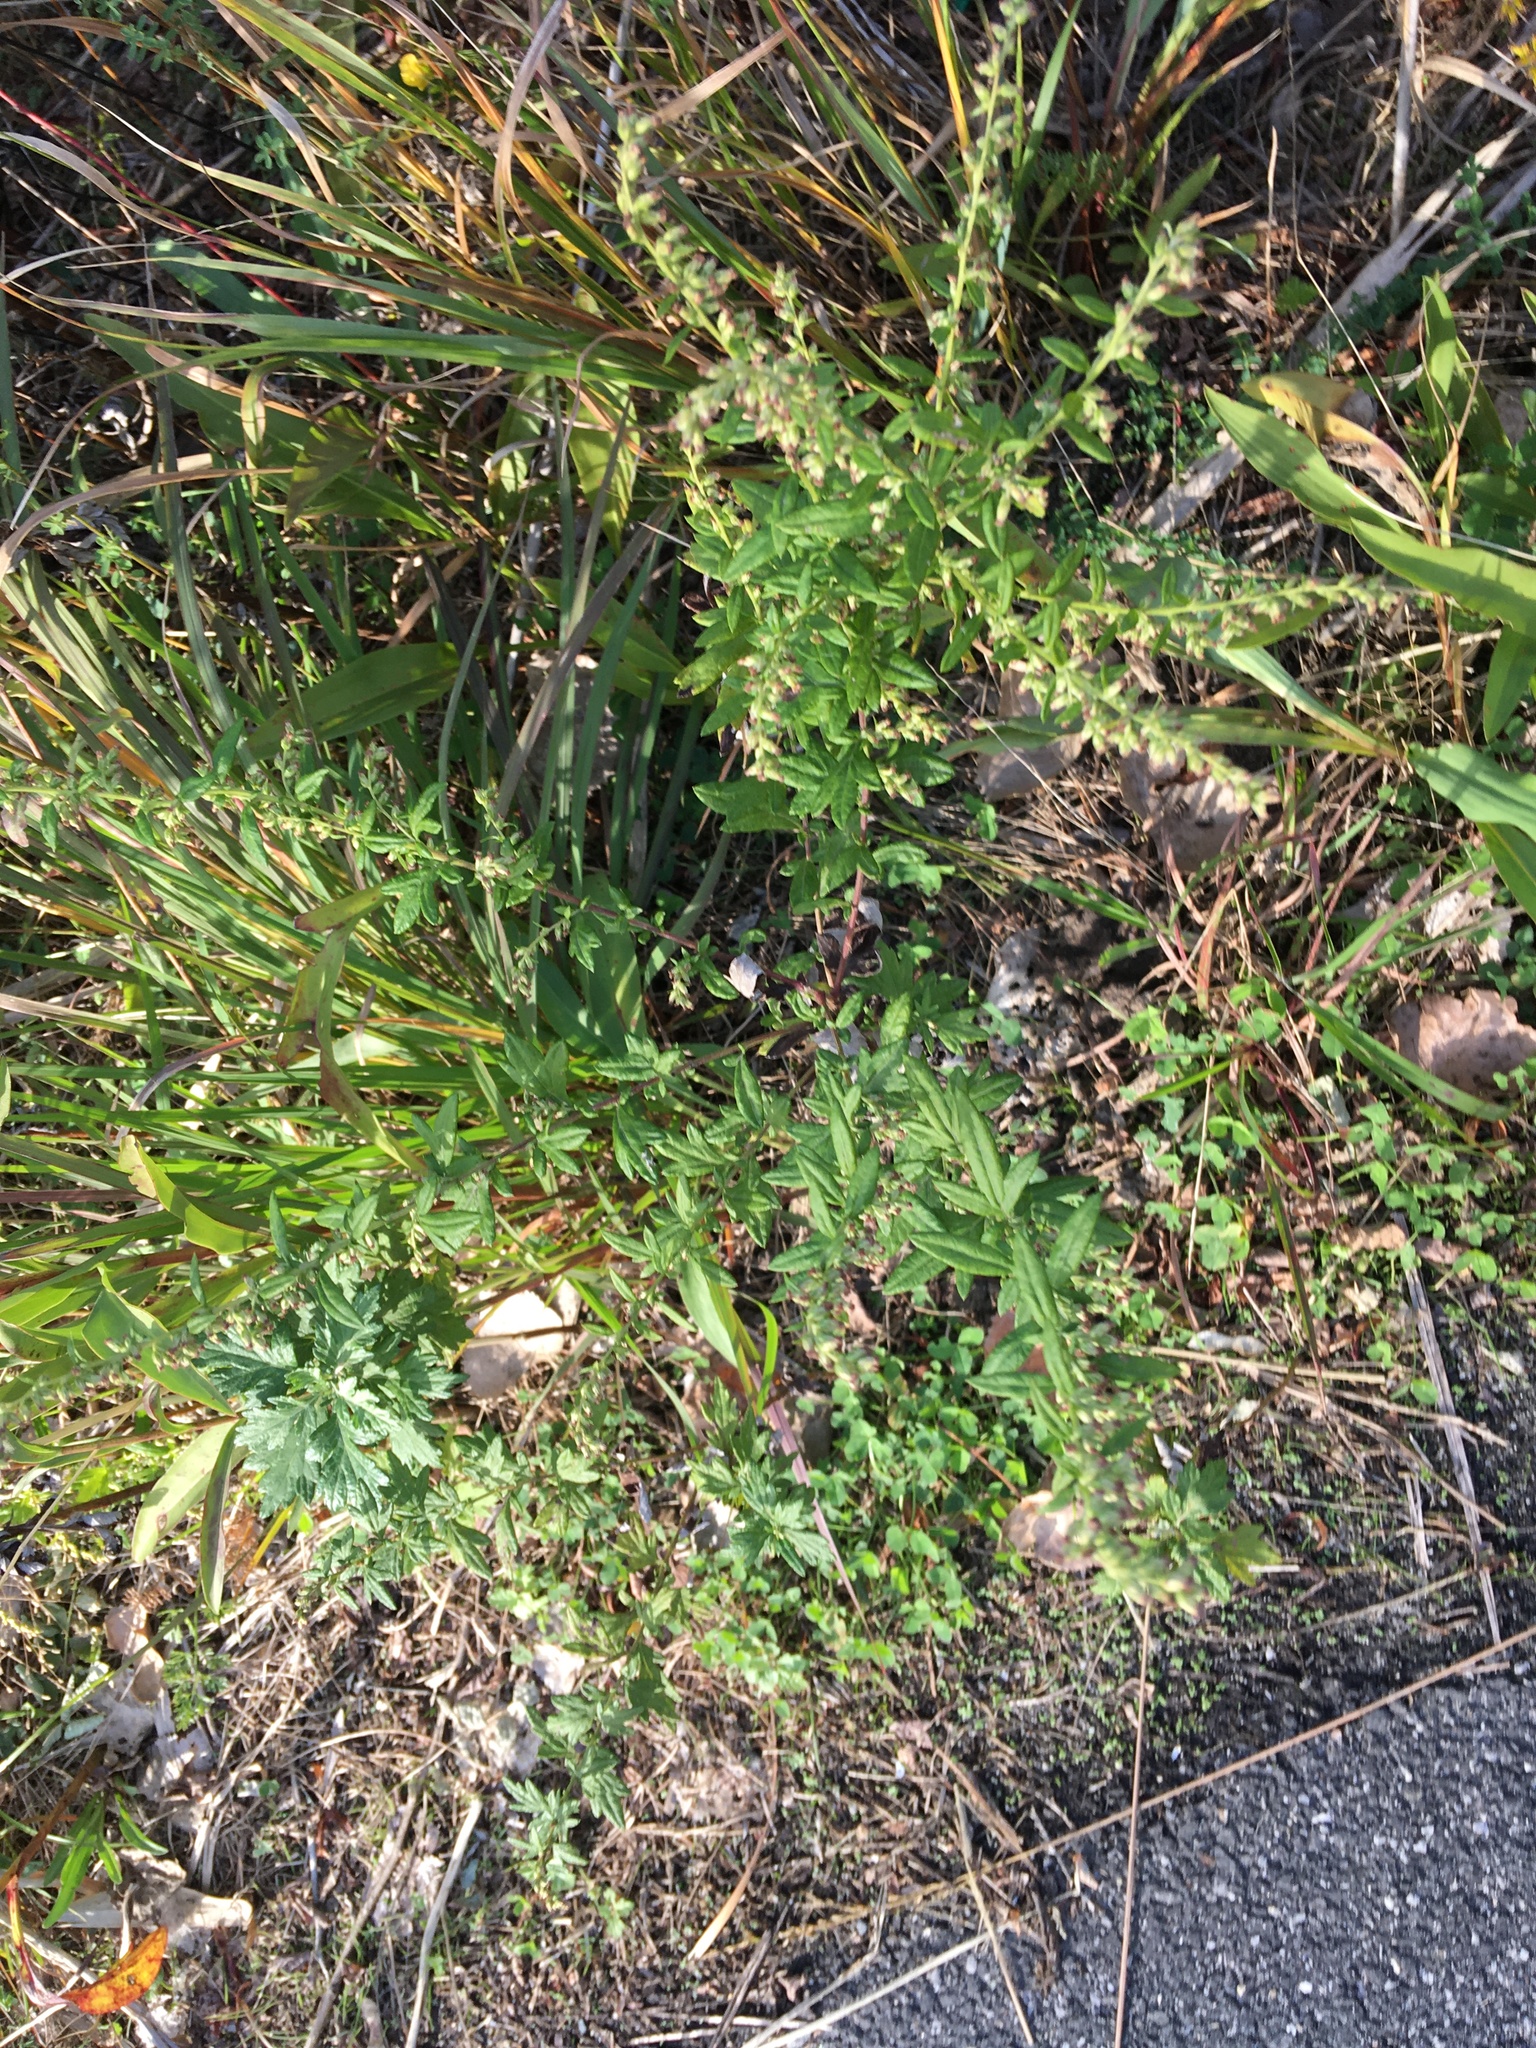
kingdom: Plantae
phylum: Tracheophyta
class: Magnoliopsida
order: Asterales
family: Asteraceae
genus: Artemisia
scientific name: Artemisia vulgaris
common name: Mugwort
